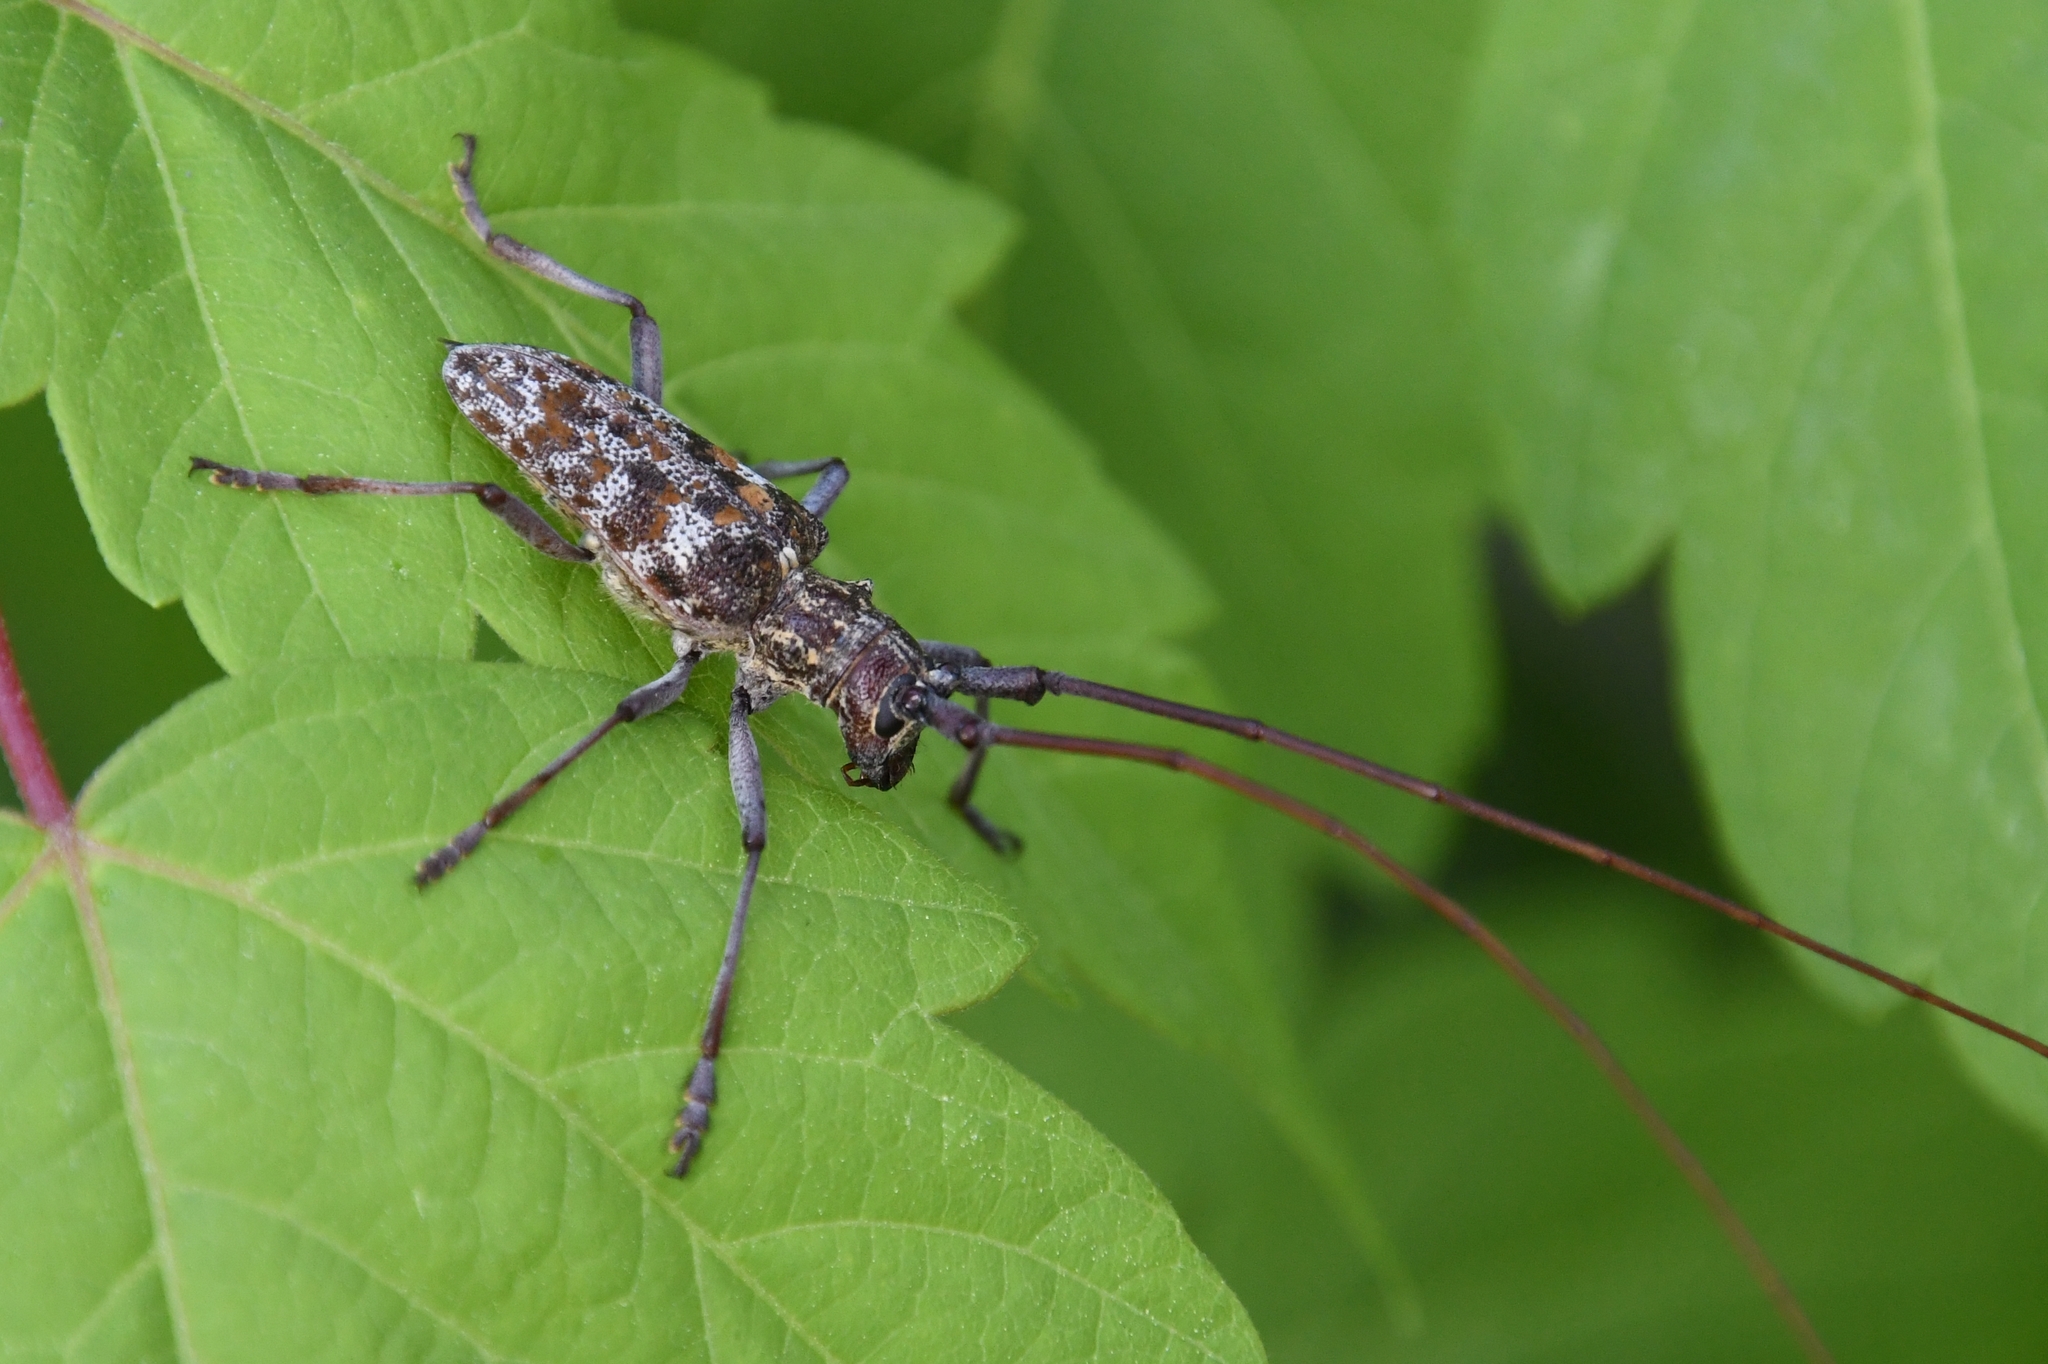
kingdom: Animalia
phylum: Arthropoda
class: Insecta
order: Coleoptera
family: Cerambycidae
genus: Monochamus
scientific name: Monochamus clamator
